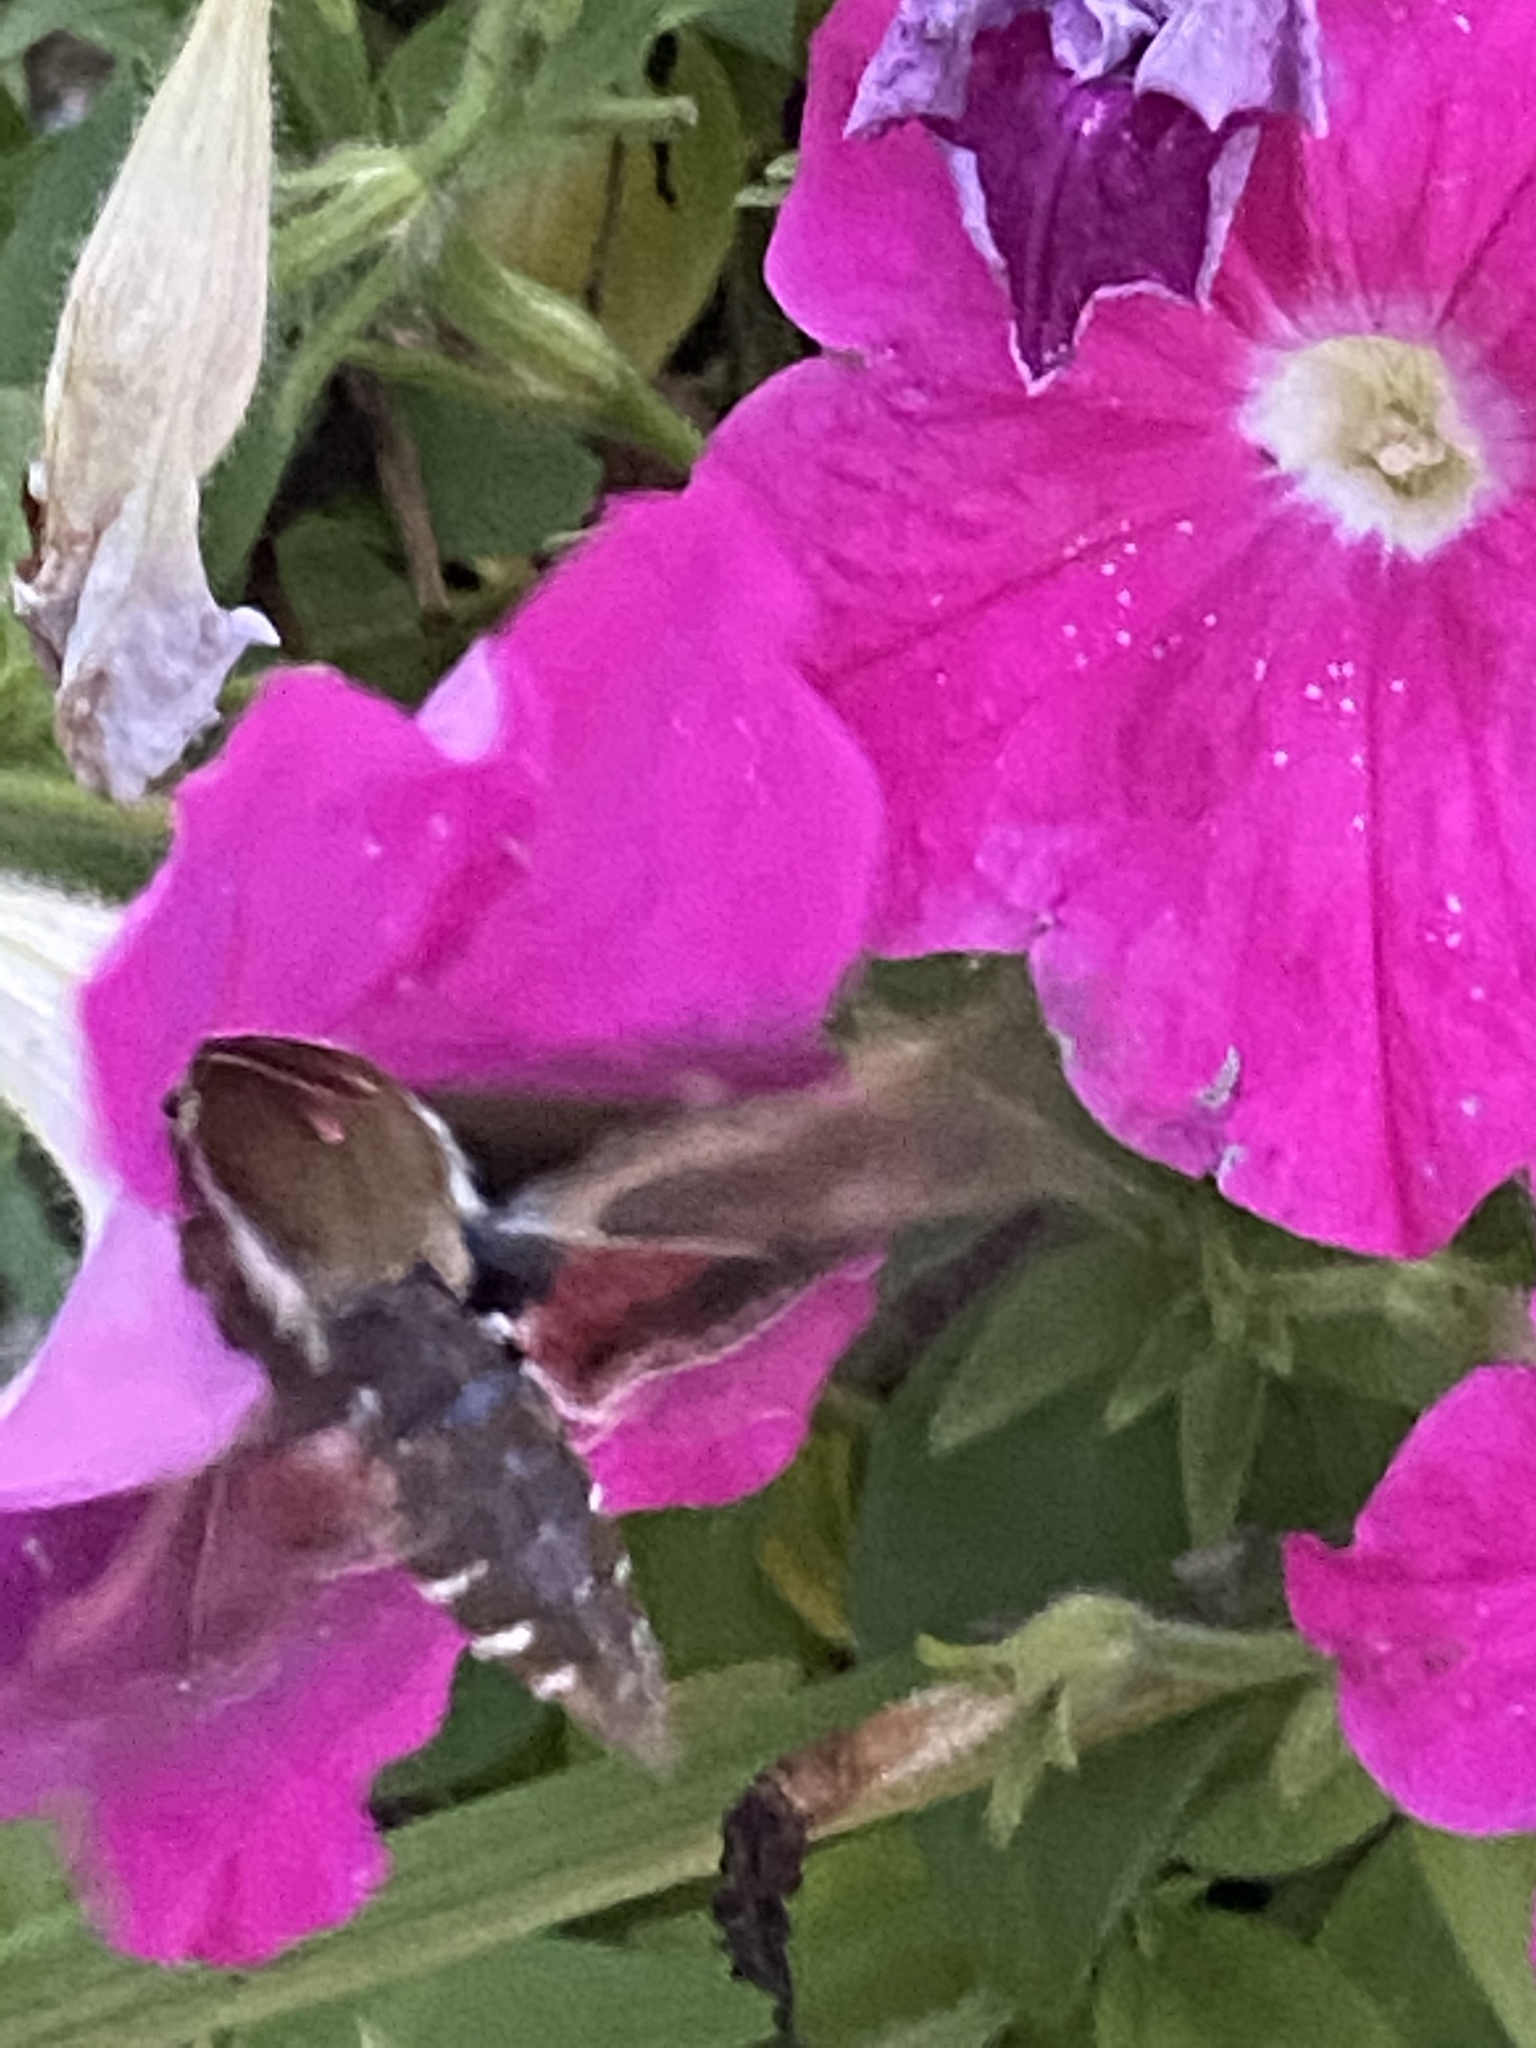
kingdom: Animalia
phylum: Arthropoda
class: Insecta
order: Lepidoptera
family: Sphingidae
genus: Hyles
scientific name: Hyles gallii
